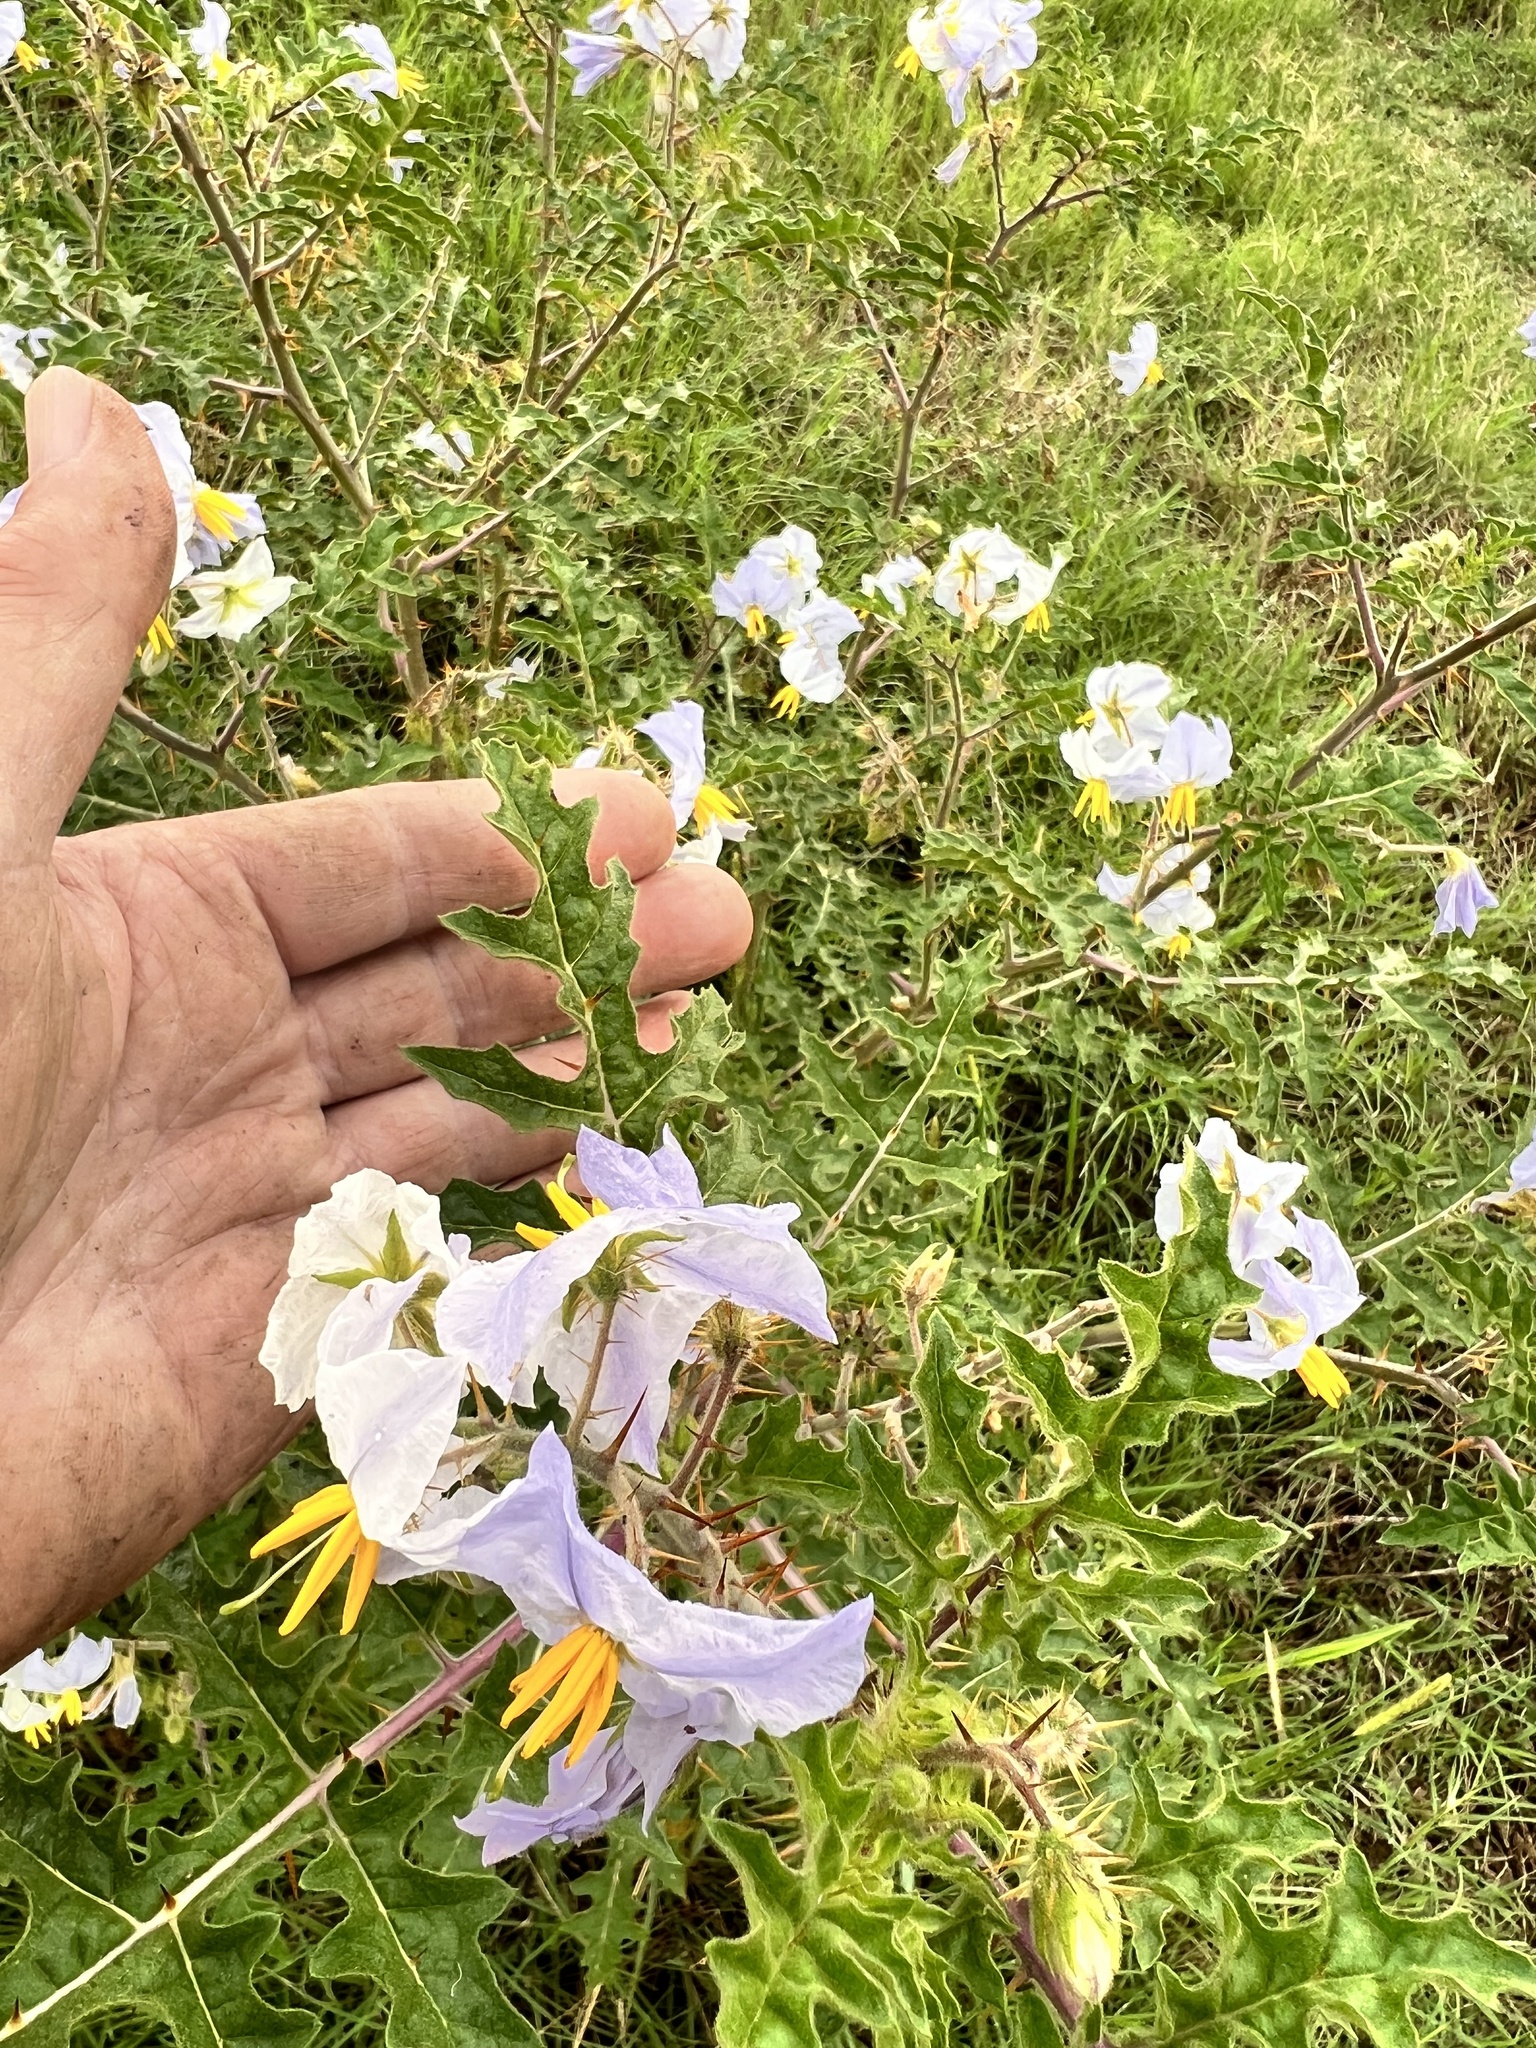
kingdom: Plantae
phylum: Tracheophyta
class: Magnoliopsida
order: Solanales
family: Solanaceae
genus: Solanum
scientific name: Solanum sisymbriifolium
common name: Red buffalo-bur
